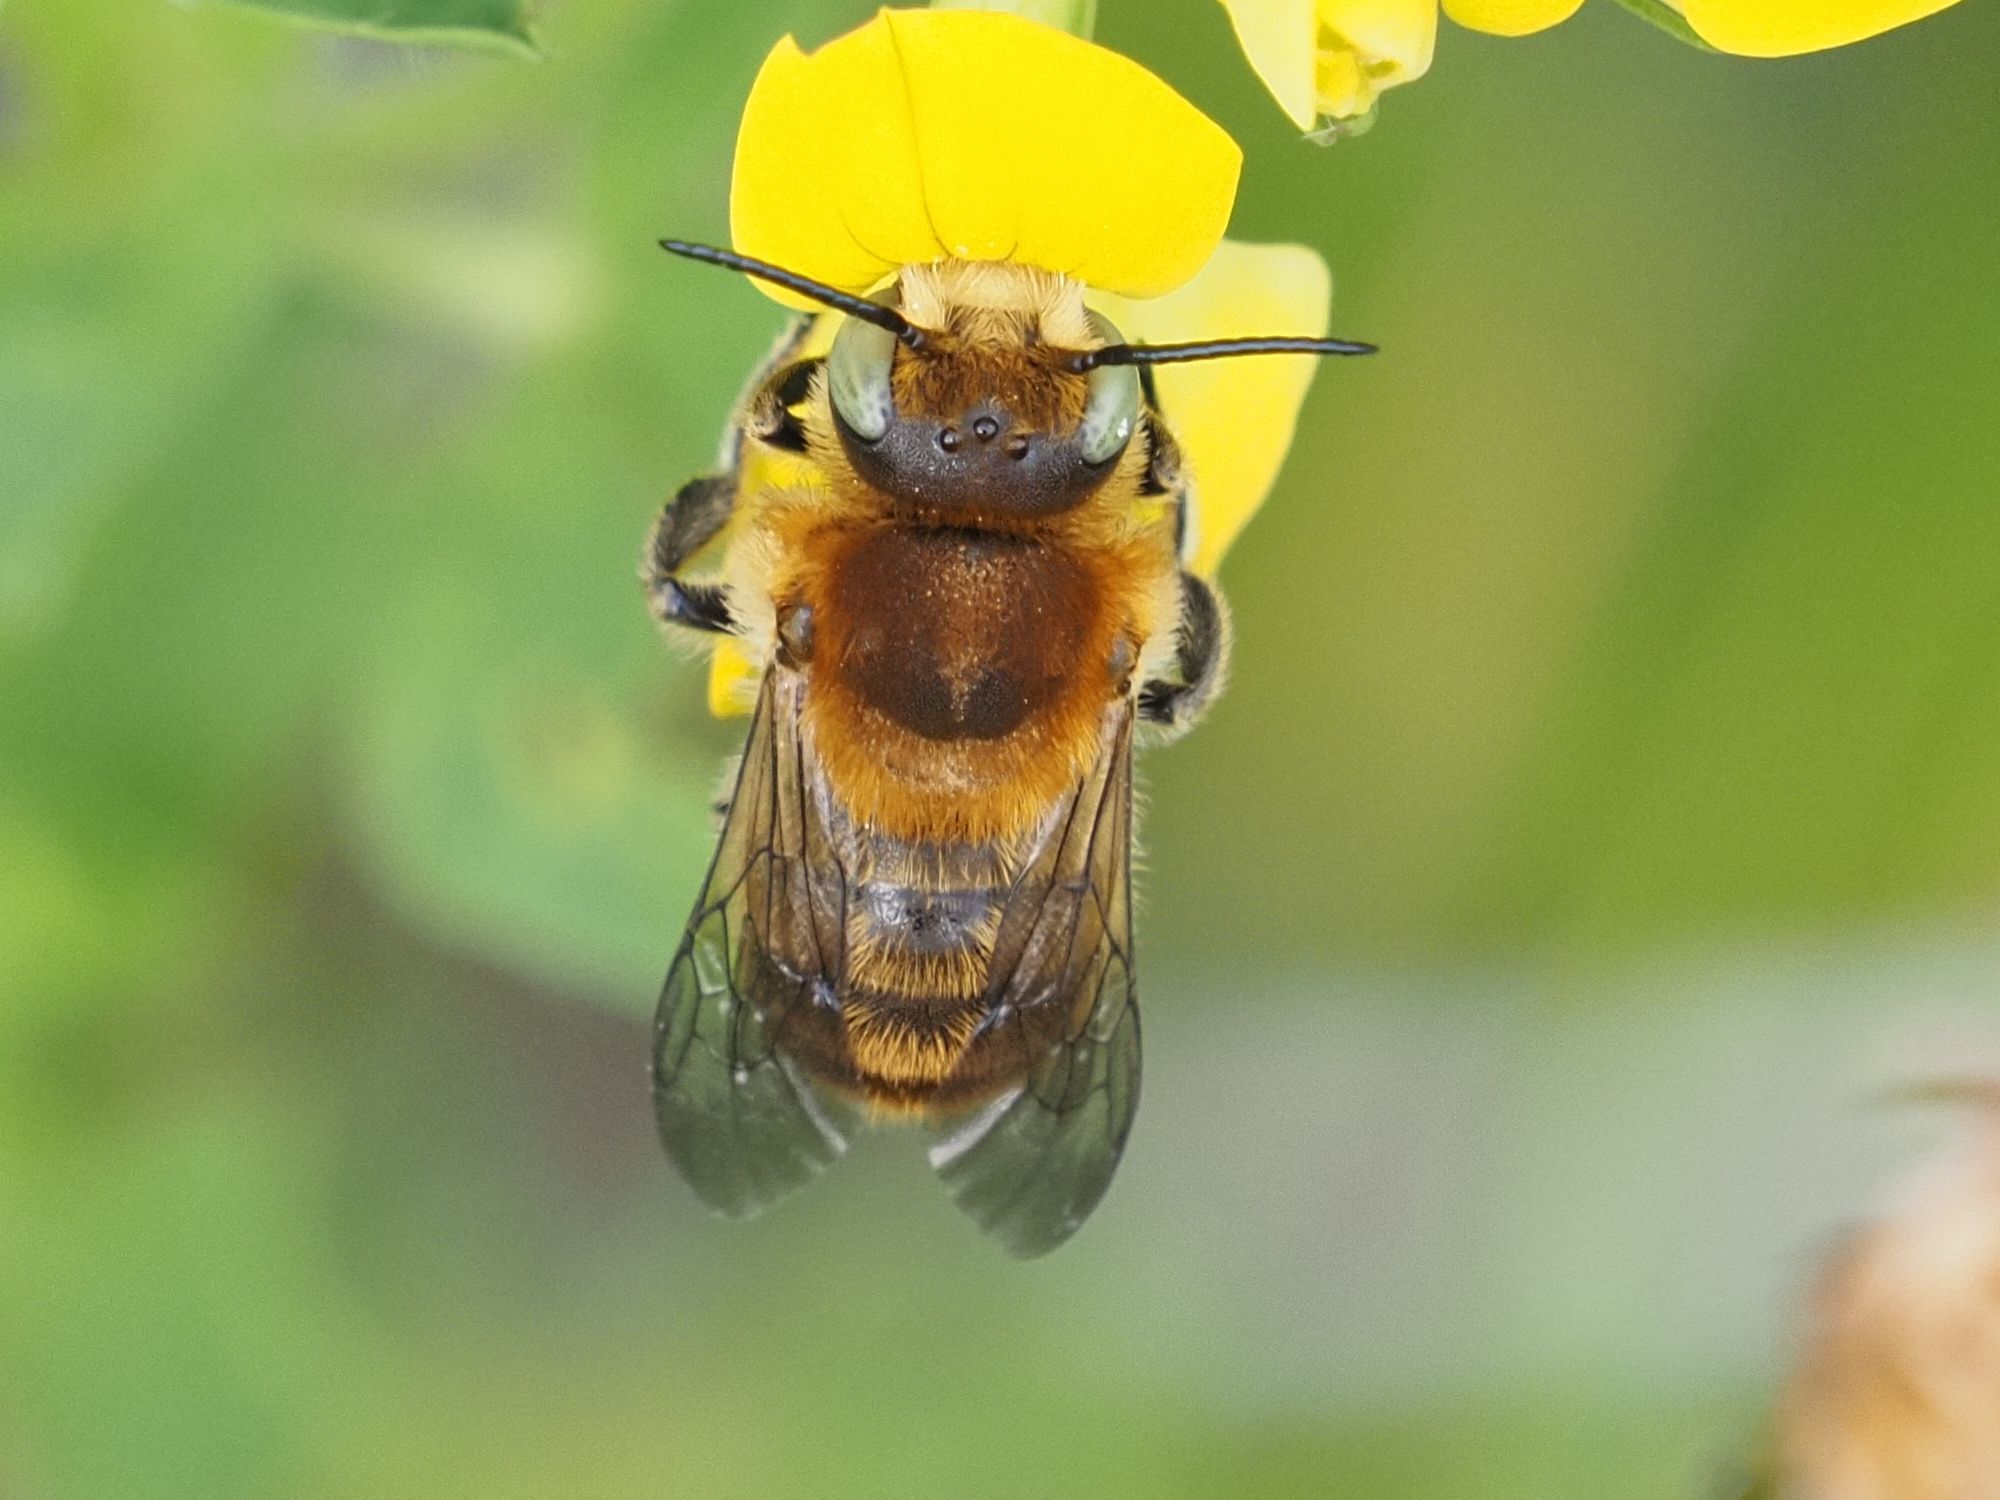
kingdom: Animalia
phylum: Arthropoda
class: Insecta
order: Hymenoptera
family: Megachilidae
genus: Trachusa
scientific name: Trachusa byssina
